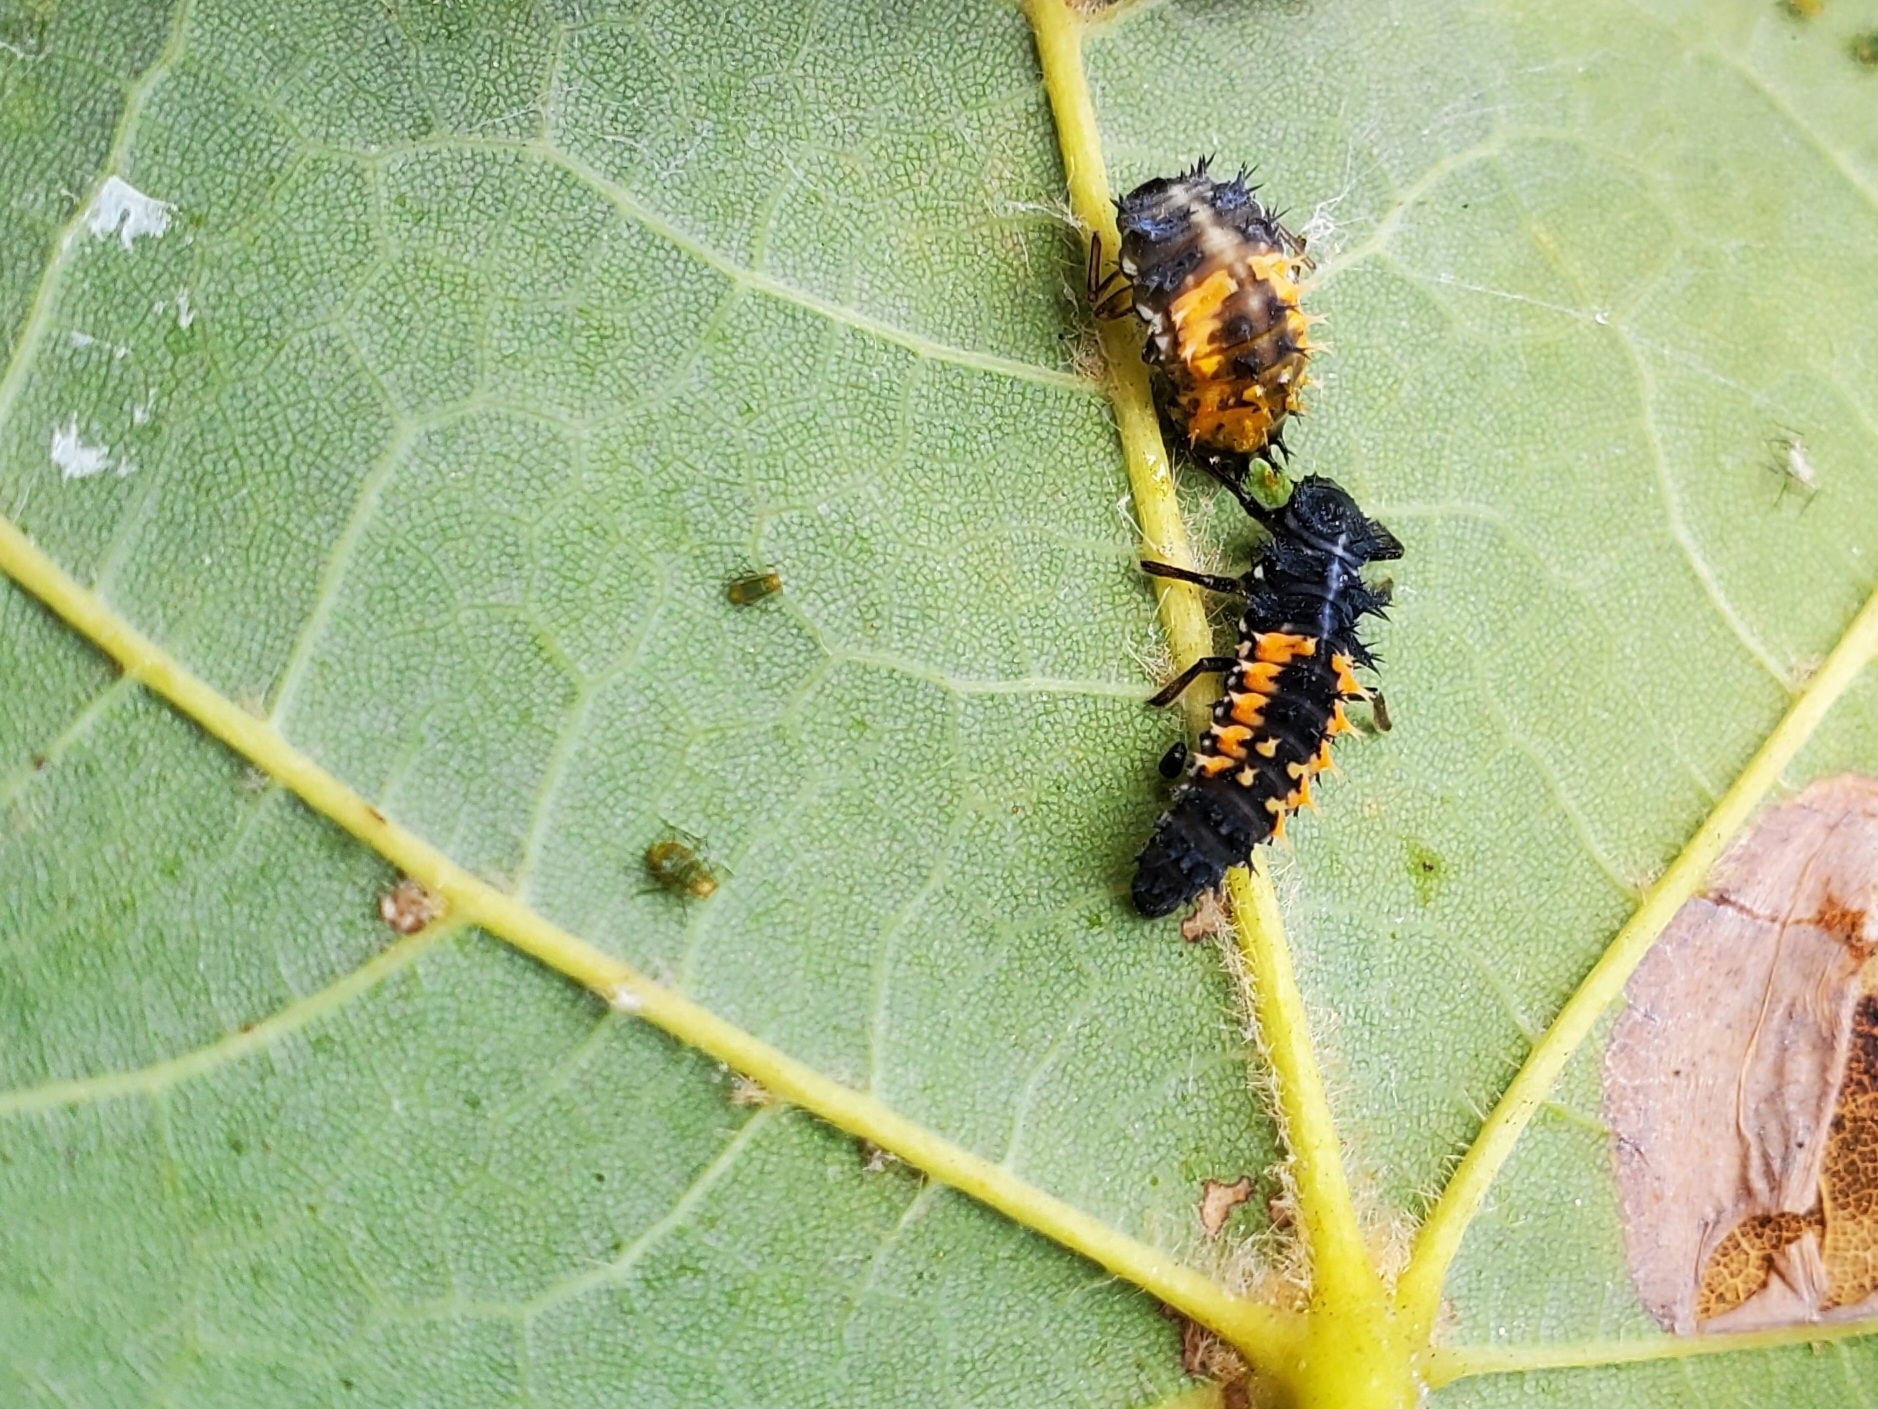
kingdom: Animalia
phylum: Arthropoda
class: Insecta
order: Coleoptera
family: Coccinellidae
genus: Harmonia
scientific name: Harmonia axyridis
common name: Harlequin ladybird
